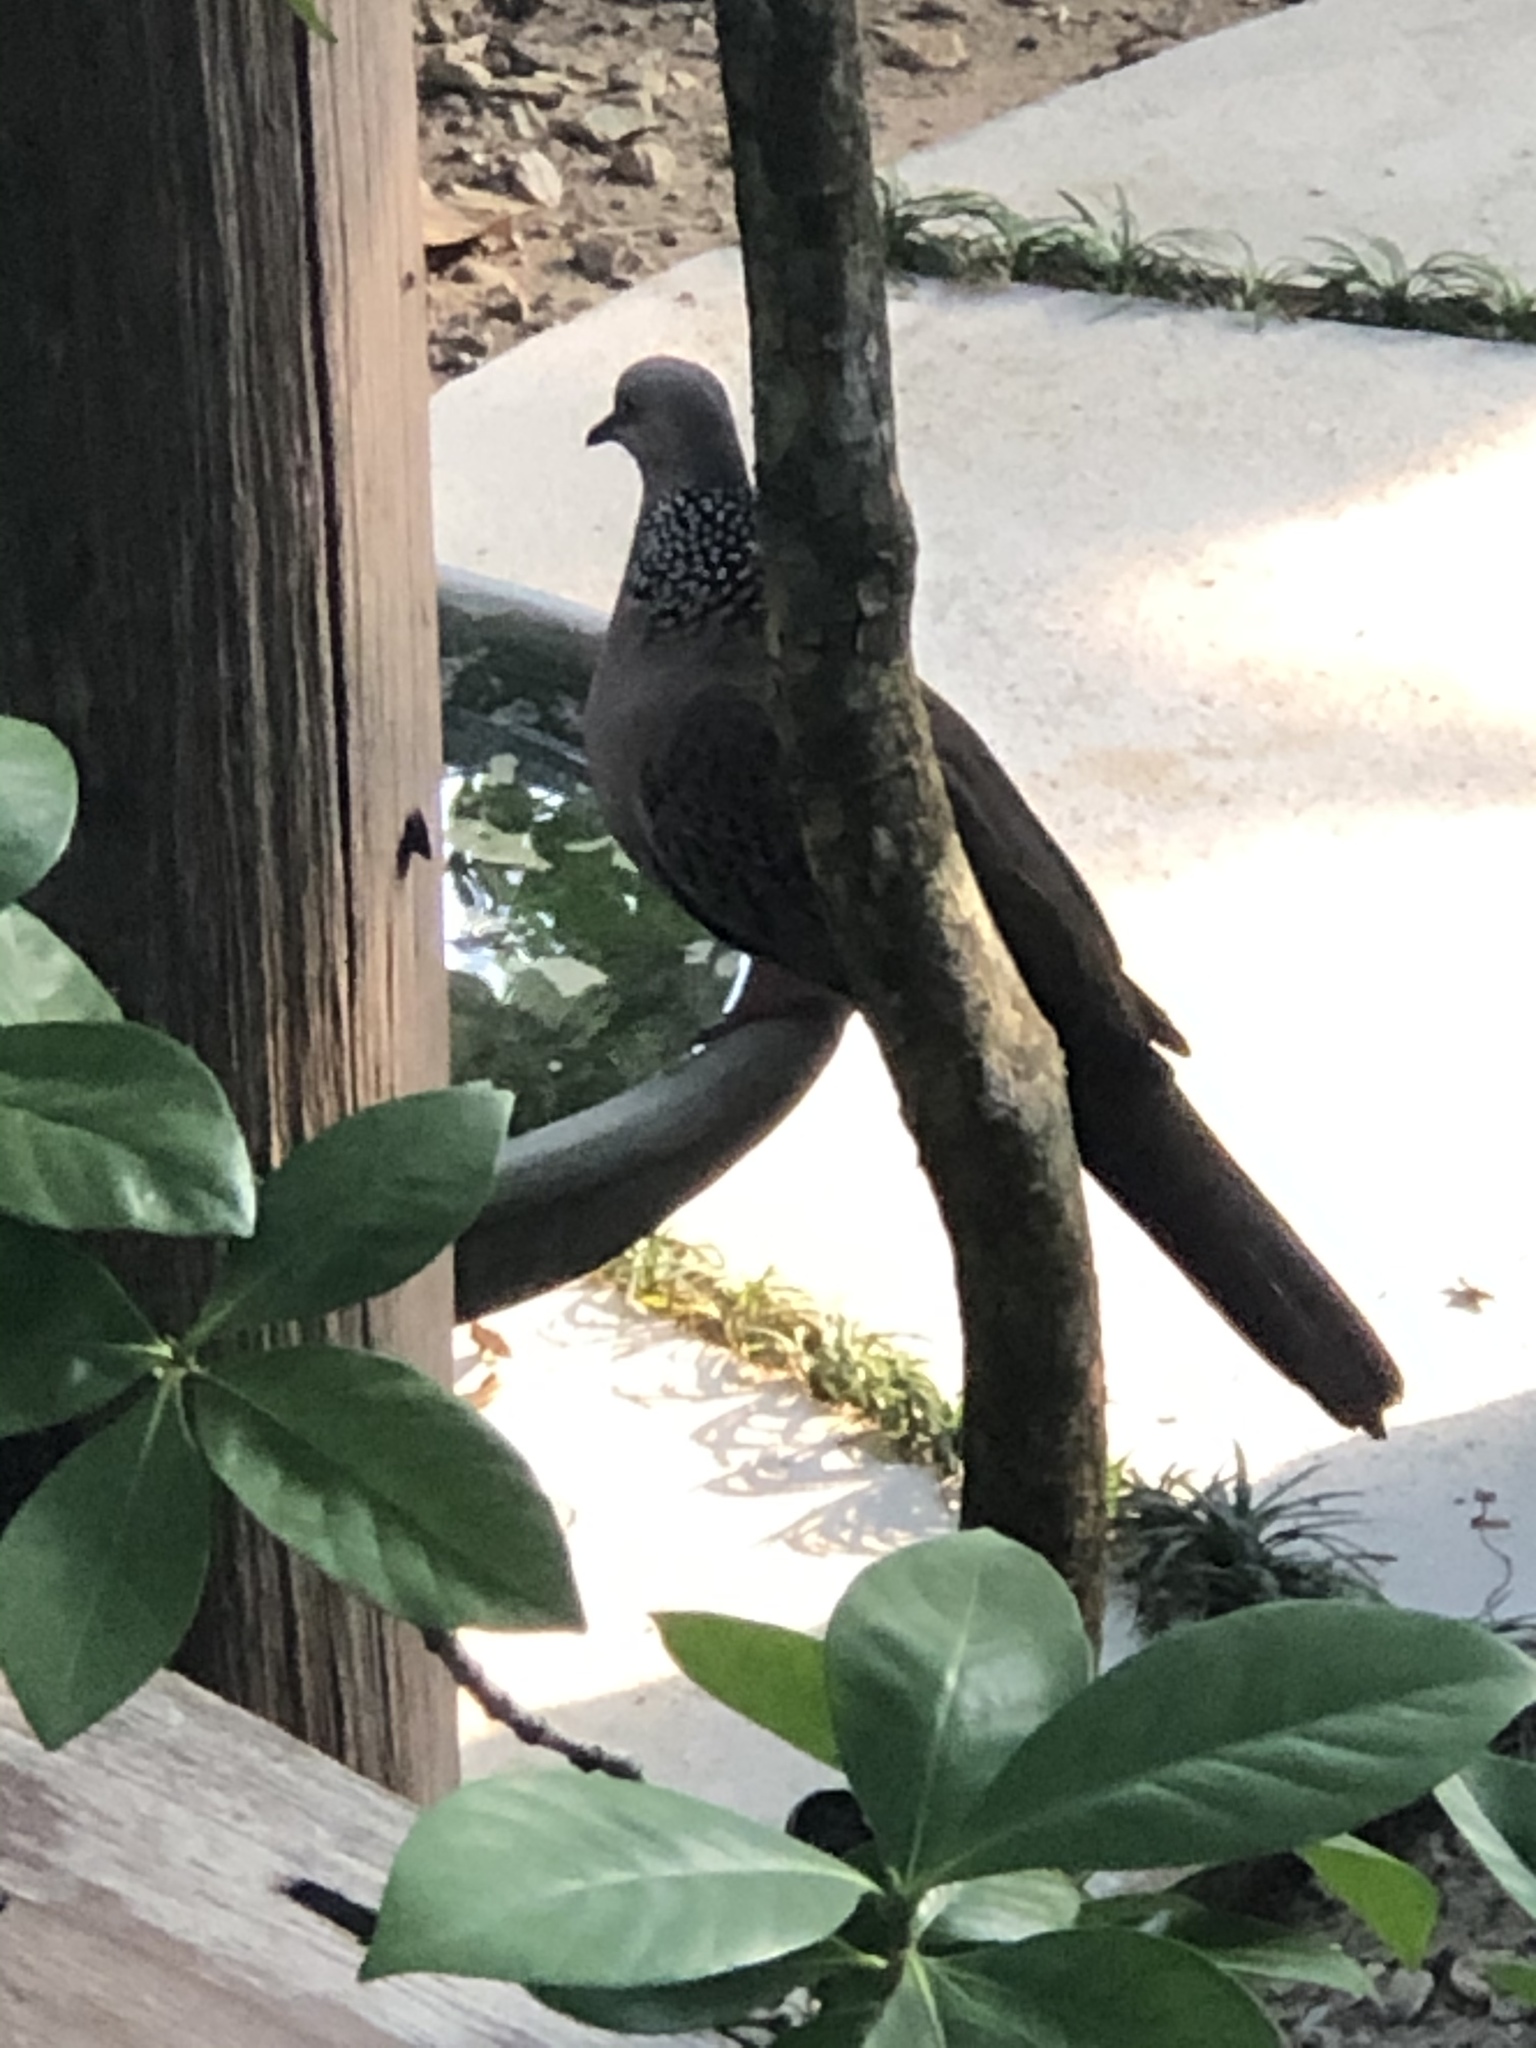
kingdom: Animalia
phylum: Chordata
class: Aves
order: Columbiformes
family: Columbidae
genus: Spilopelia
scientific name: Spilopelia chinensis
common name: Spotted dove
